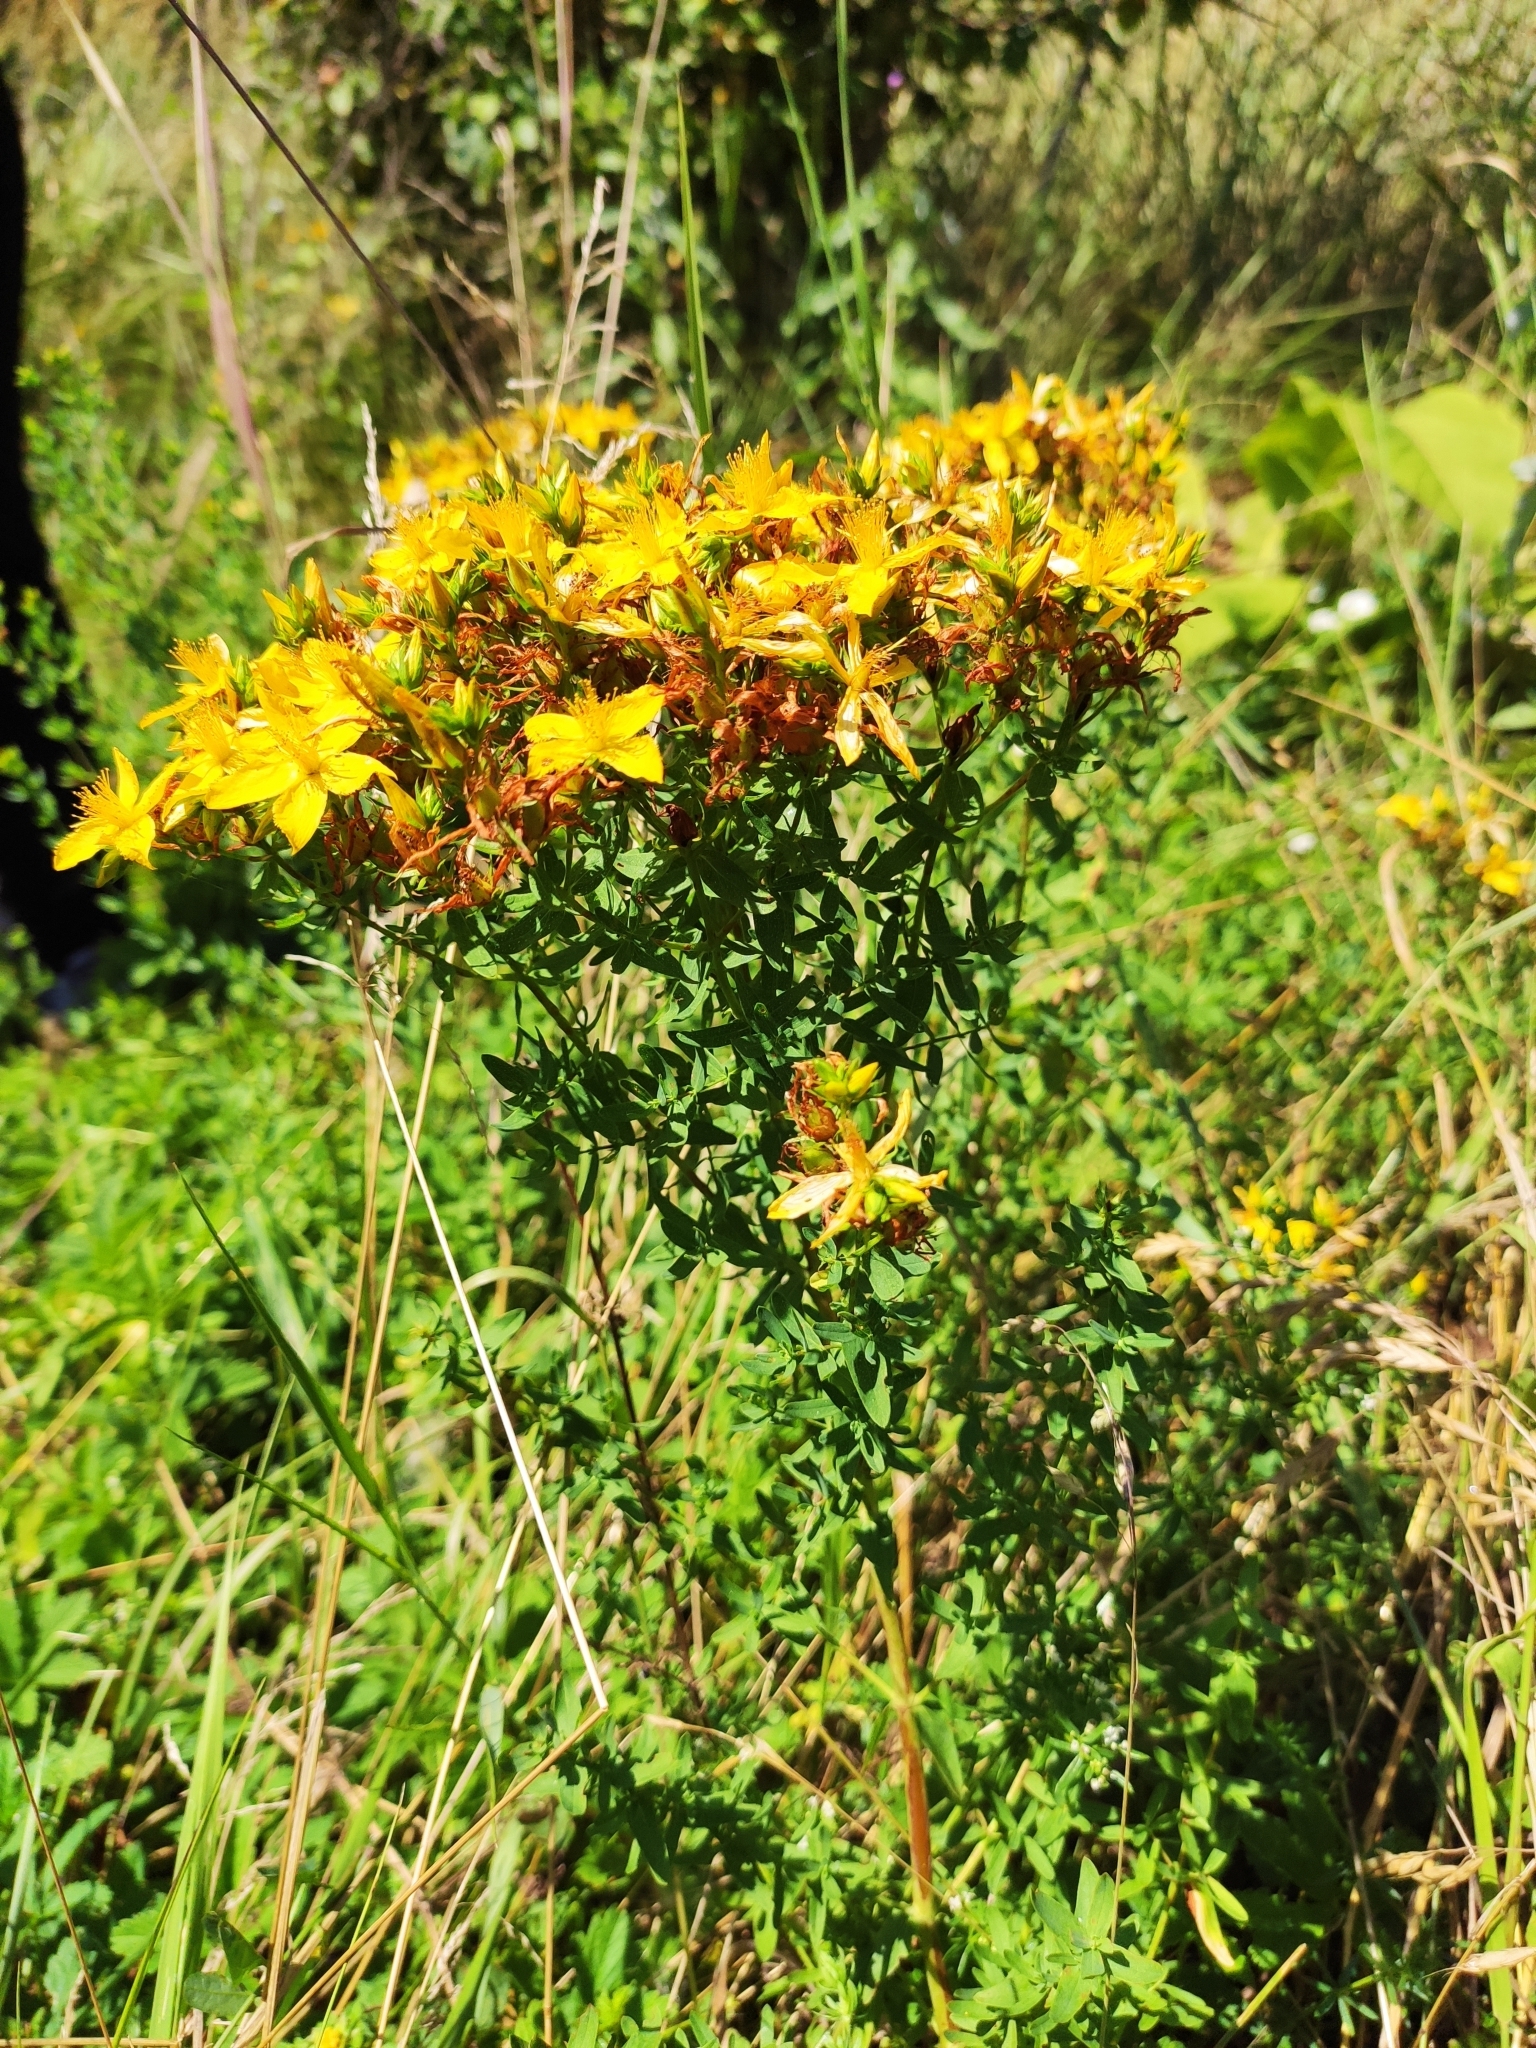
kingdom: Plantae
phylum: Tracheophyta
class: Magnoliopsida
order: Malpighiales
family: Hypericaceae
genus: Hypericum
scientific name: Hypericum perforatum
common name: Common st. johnswort
